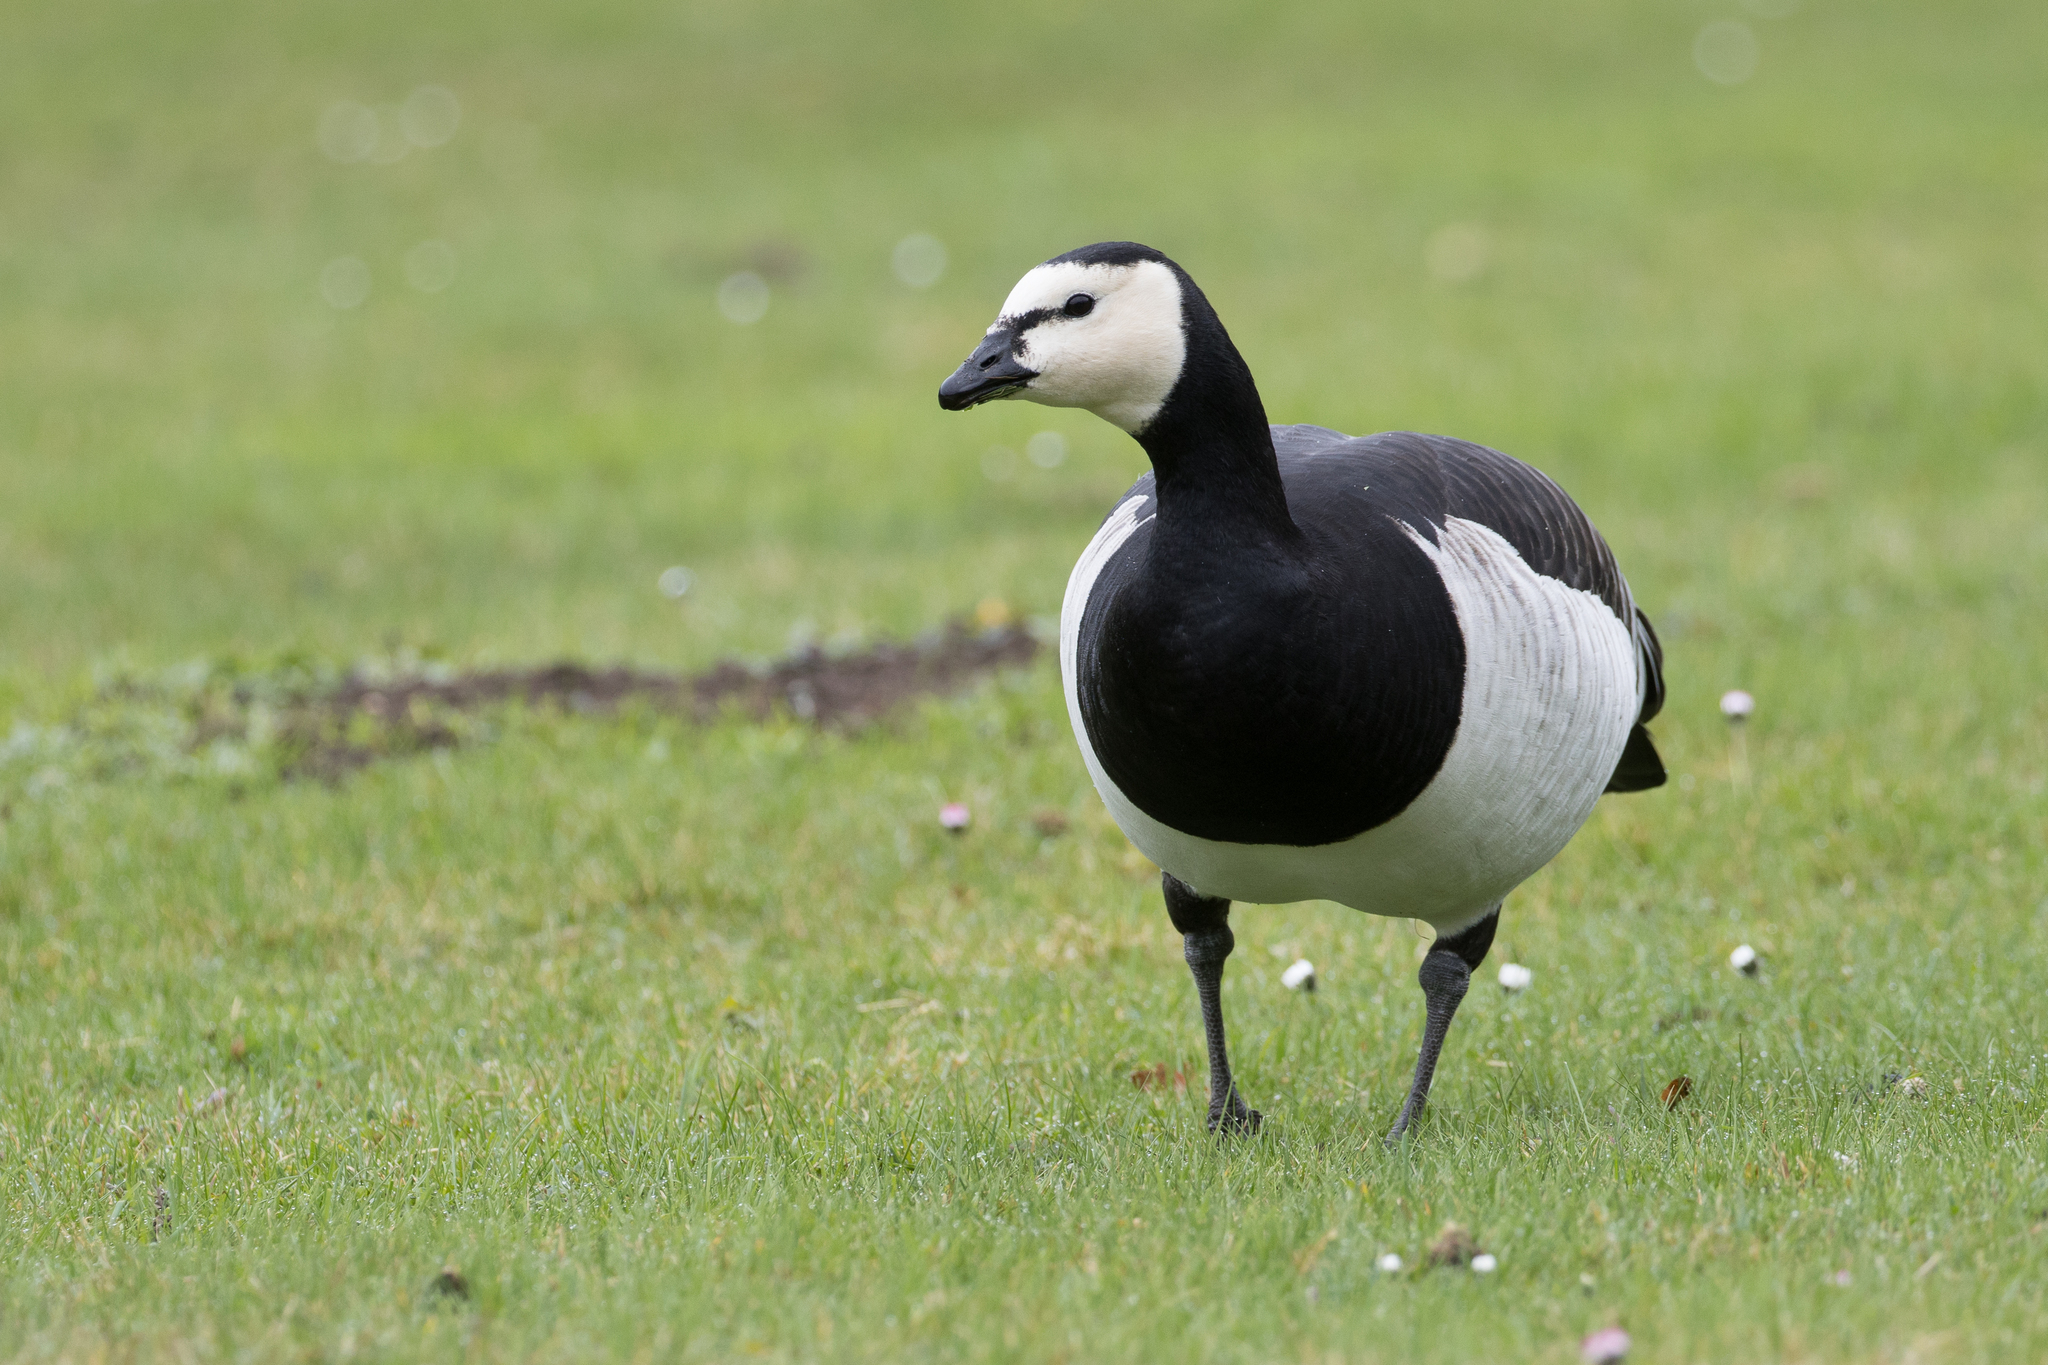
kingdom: Animalia
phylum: Chordata
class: Aves
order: Anseriformes
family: Anatidae
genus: Branta
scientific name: Branta leucopsis
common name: Barnacle goose
